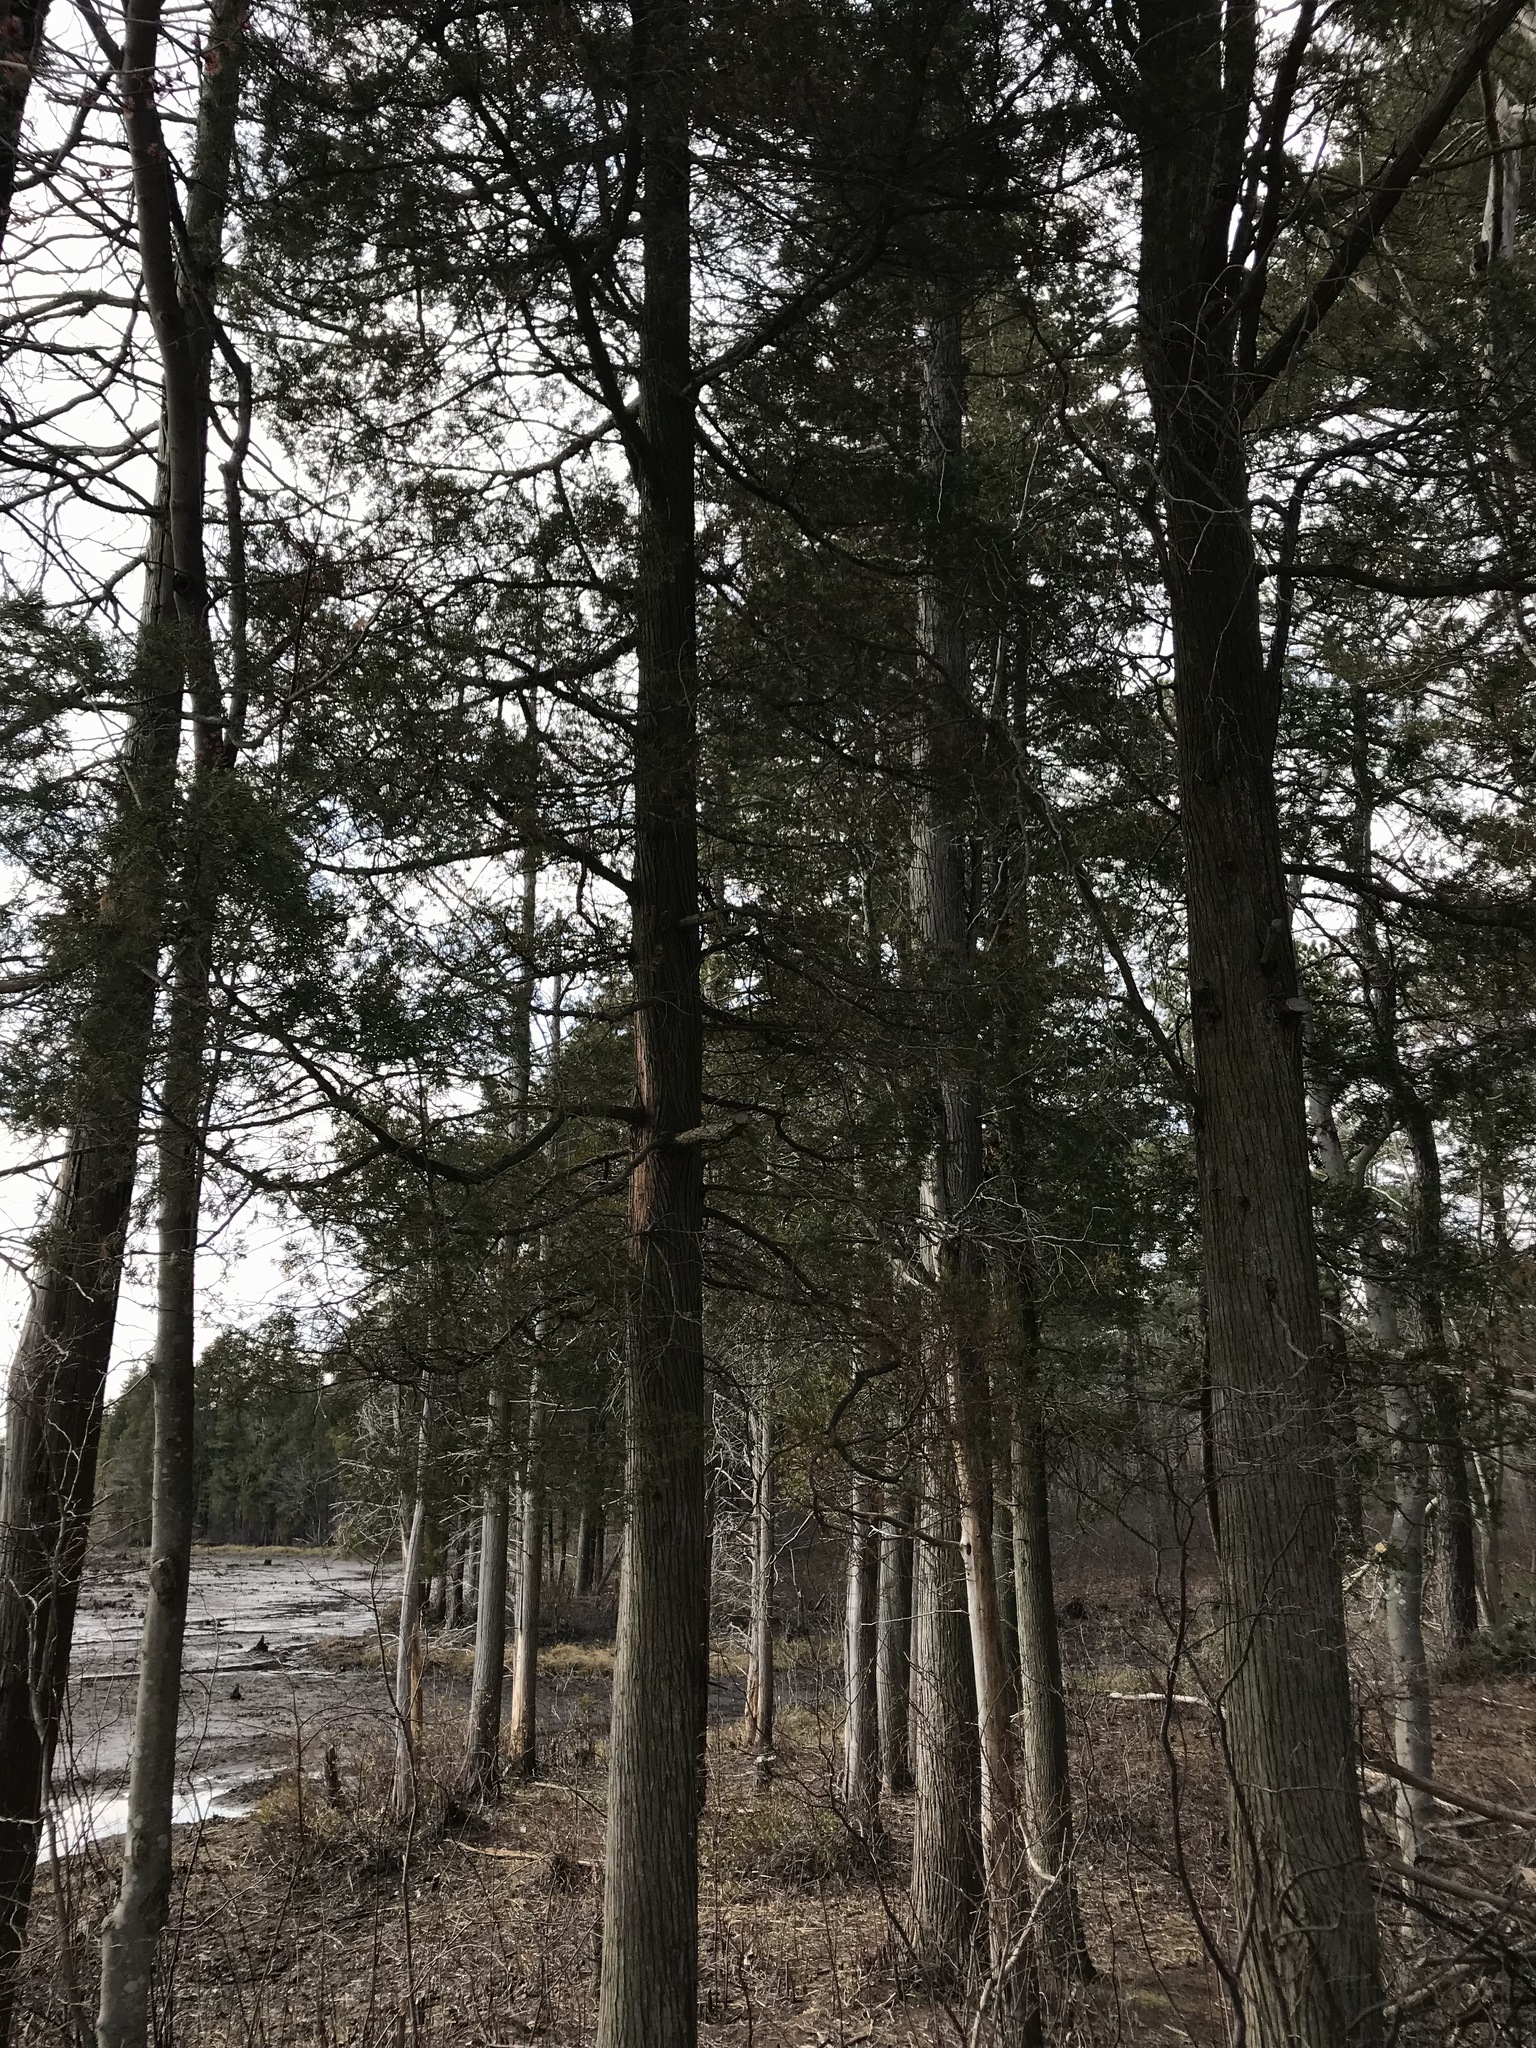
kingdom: Plantae
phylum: Tracheophyta
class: Pinopsida
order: Pinales
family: Cupressaceae
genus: Chamaecyparis
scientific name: Chamaecyparis thyoides
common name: Atlantic white cedar
